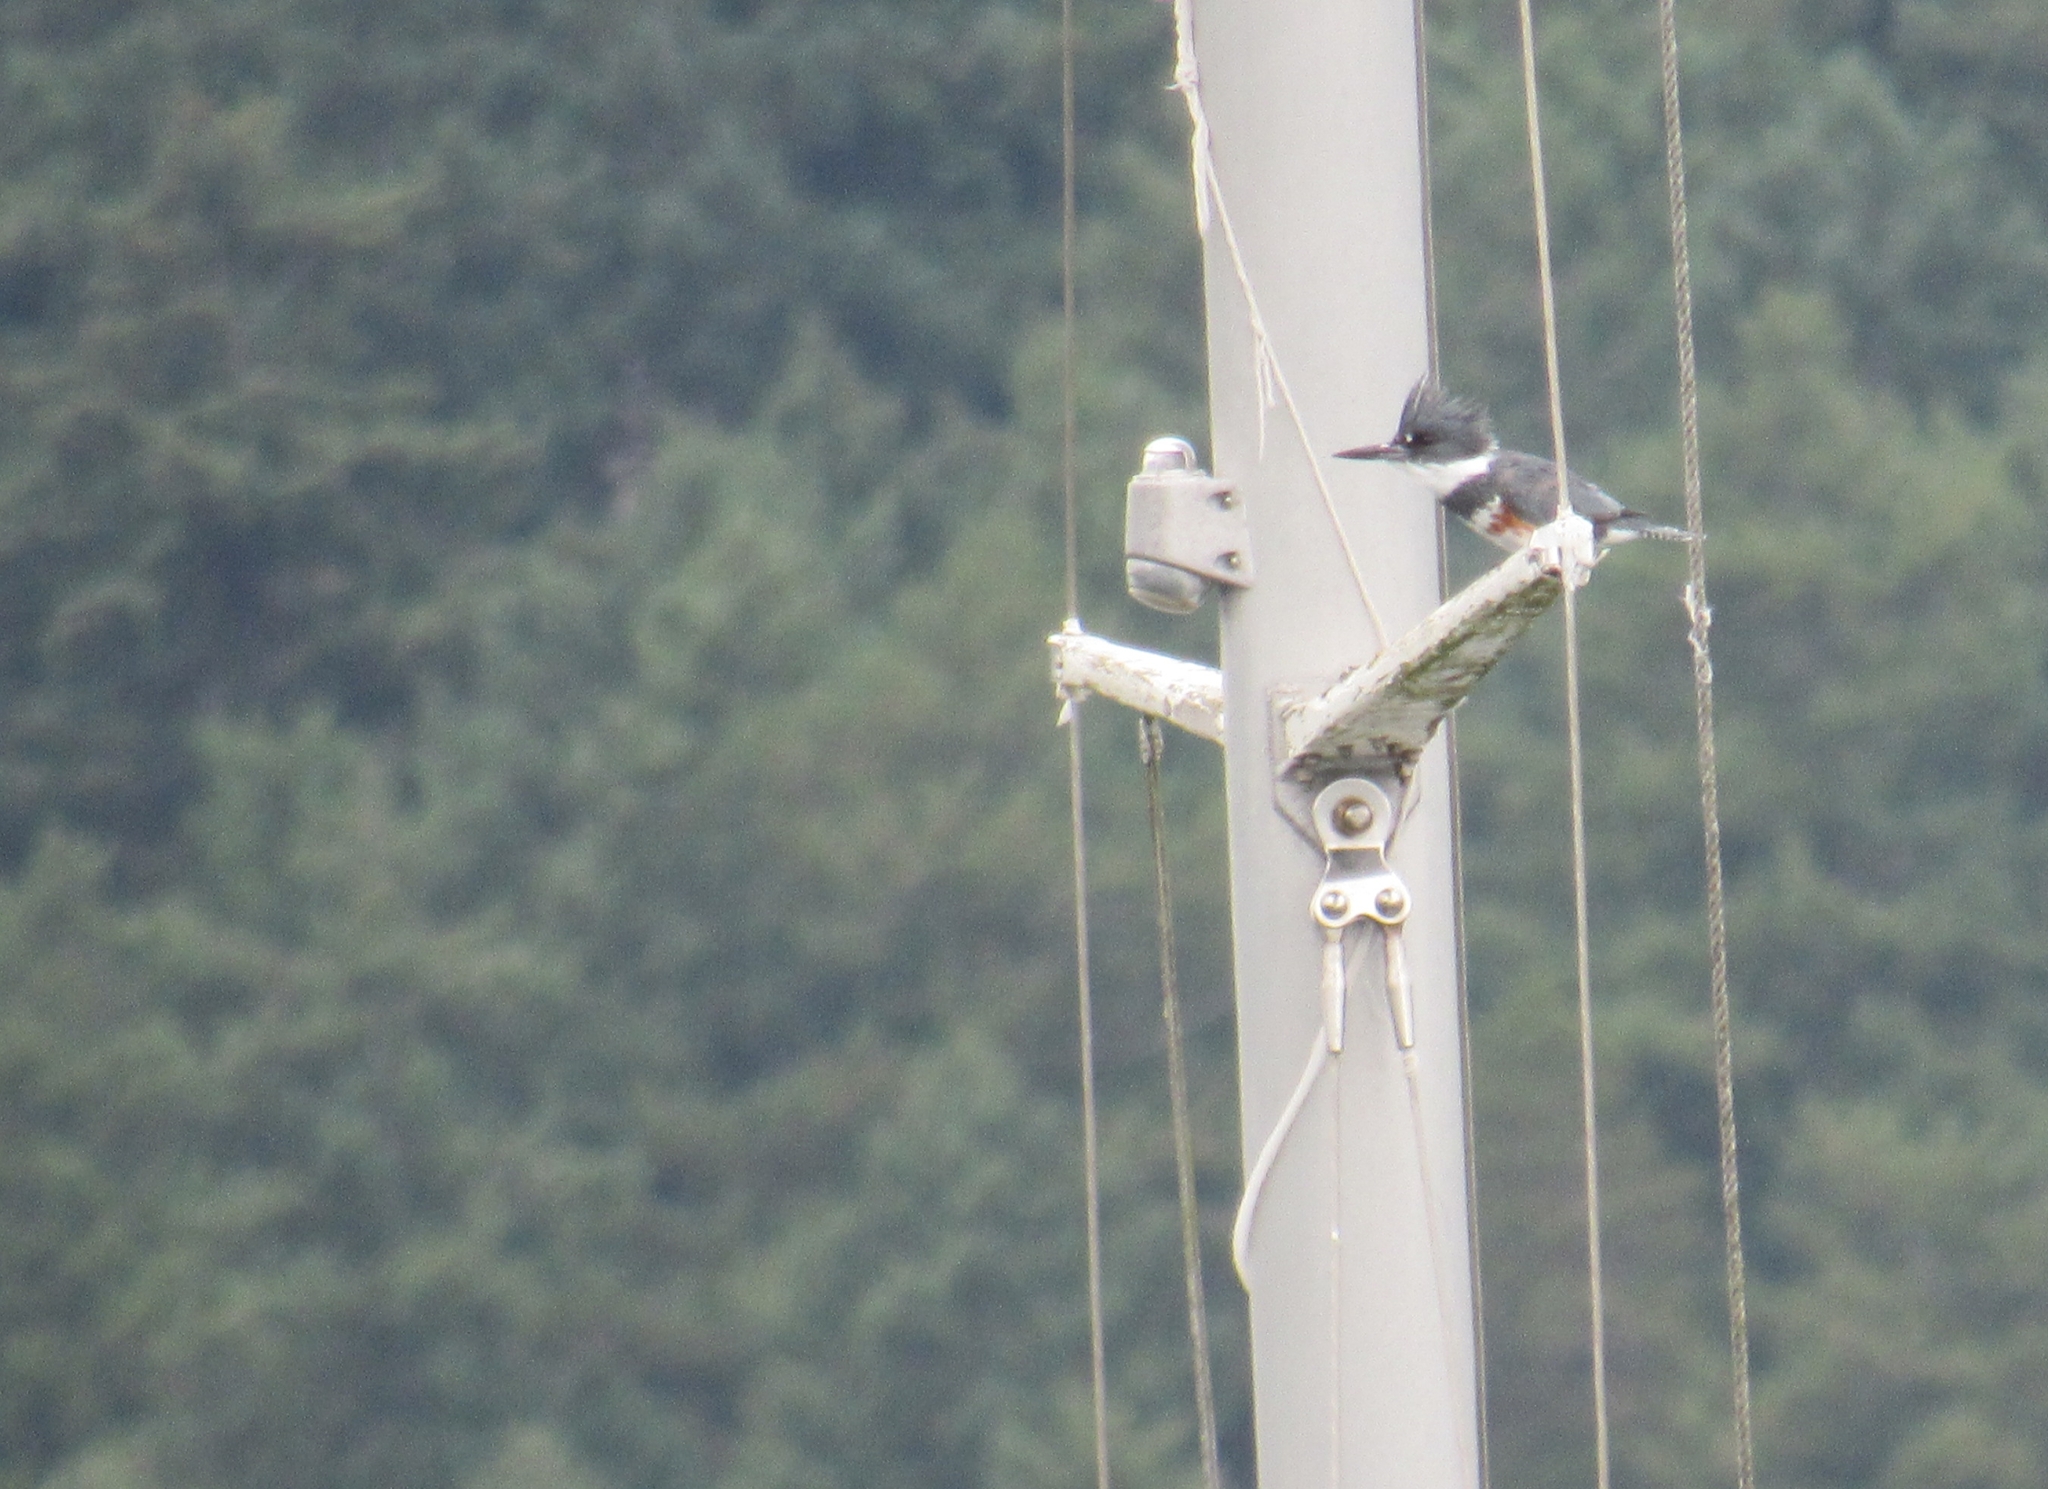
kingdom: Animalia
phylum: Chordata
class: Aves
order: Coraciiformes
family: Alcedinidae
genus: Megaceryle
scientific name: Megaceryle alcyon
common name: Belted kingfisher
